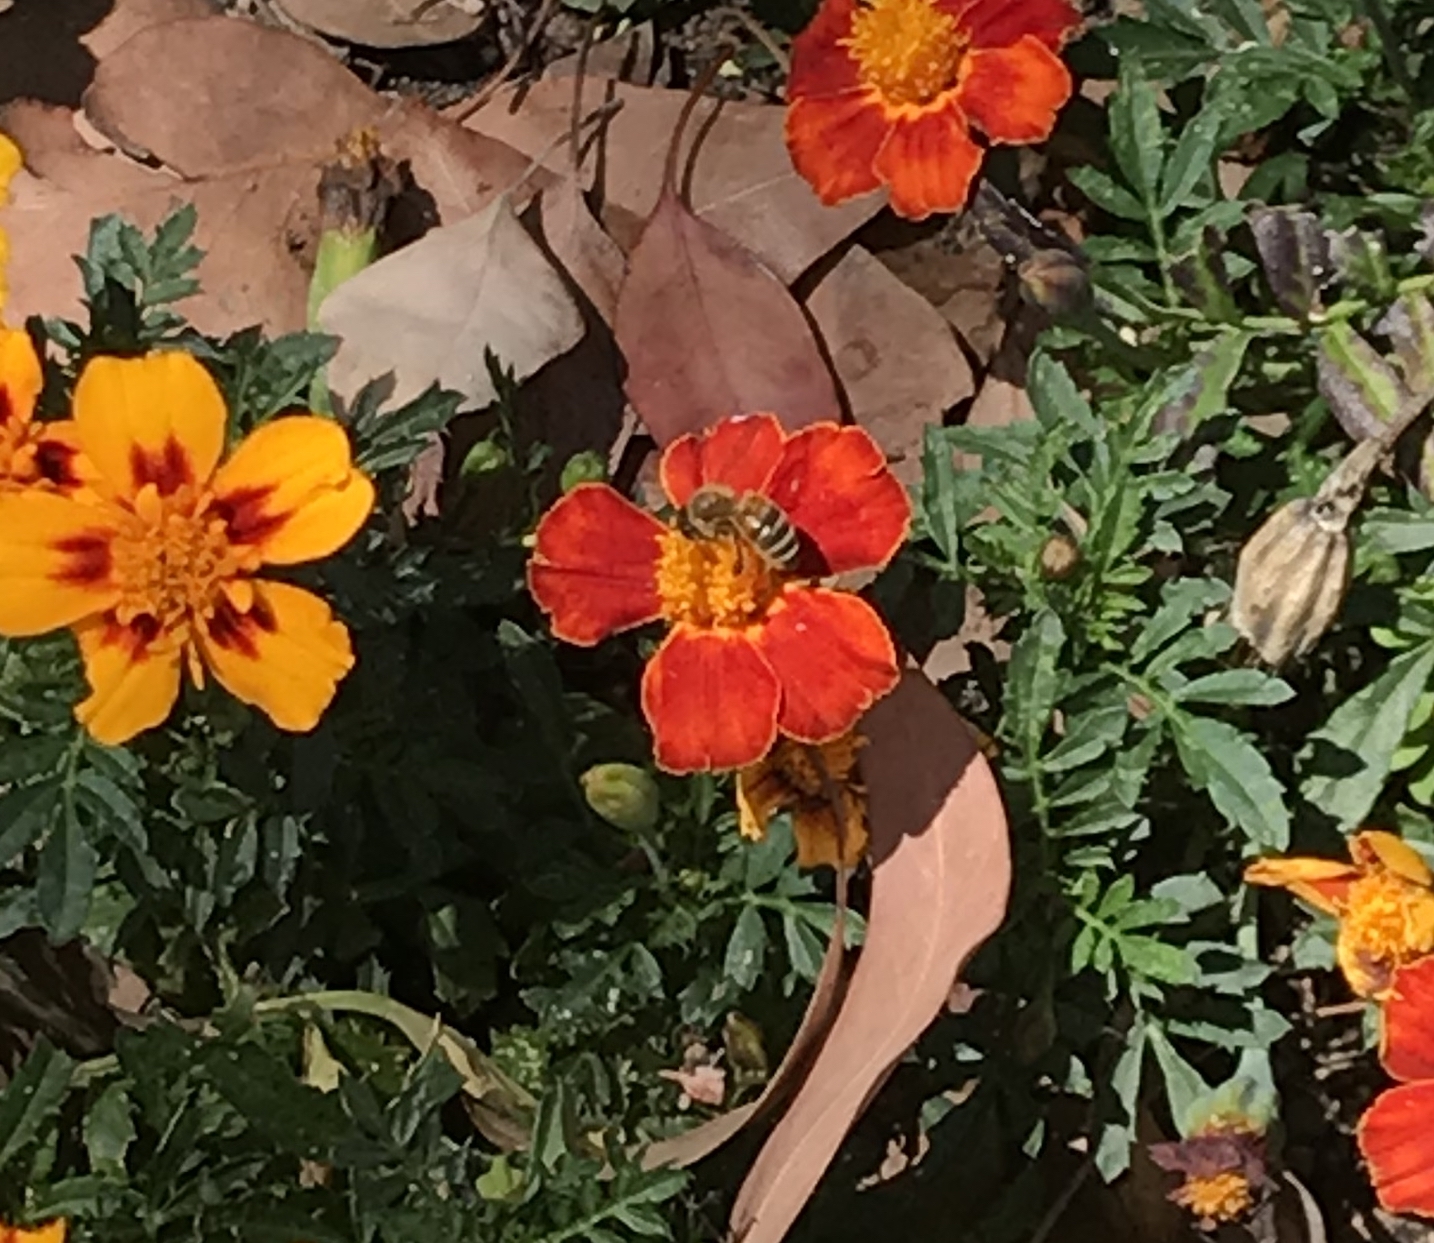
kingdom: Animalia
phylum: Arthropoda
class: Insecta
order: Hymenoptera
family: Apidae
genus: Apis
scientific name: Apis mellifera
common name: Honey bee
